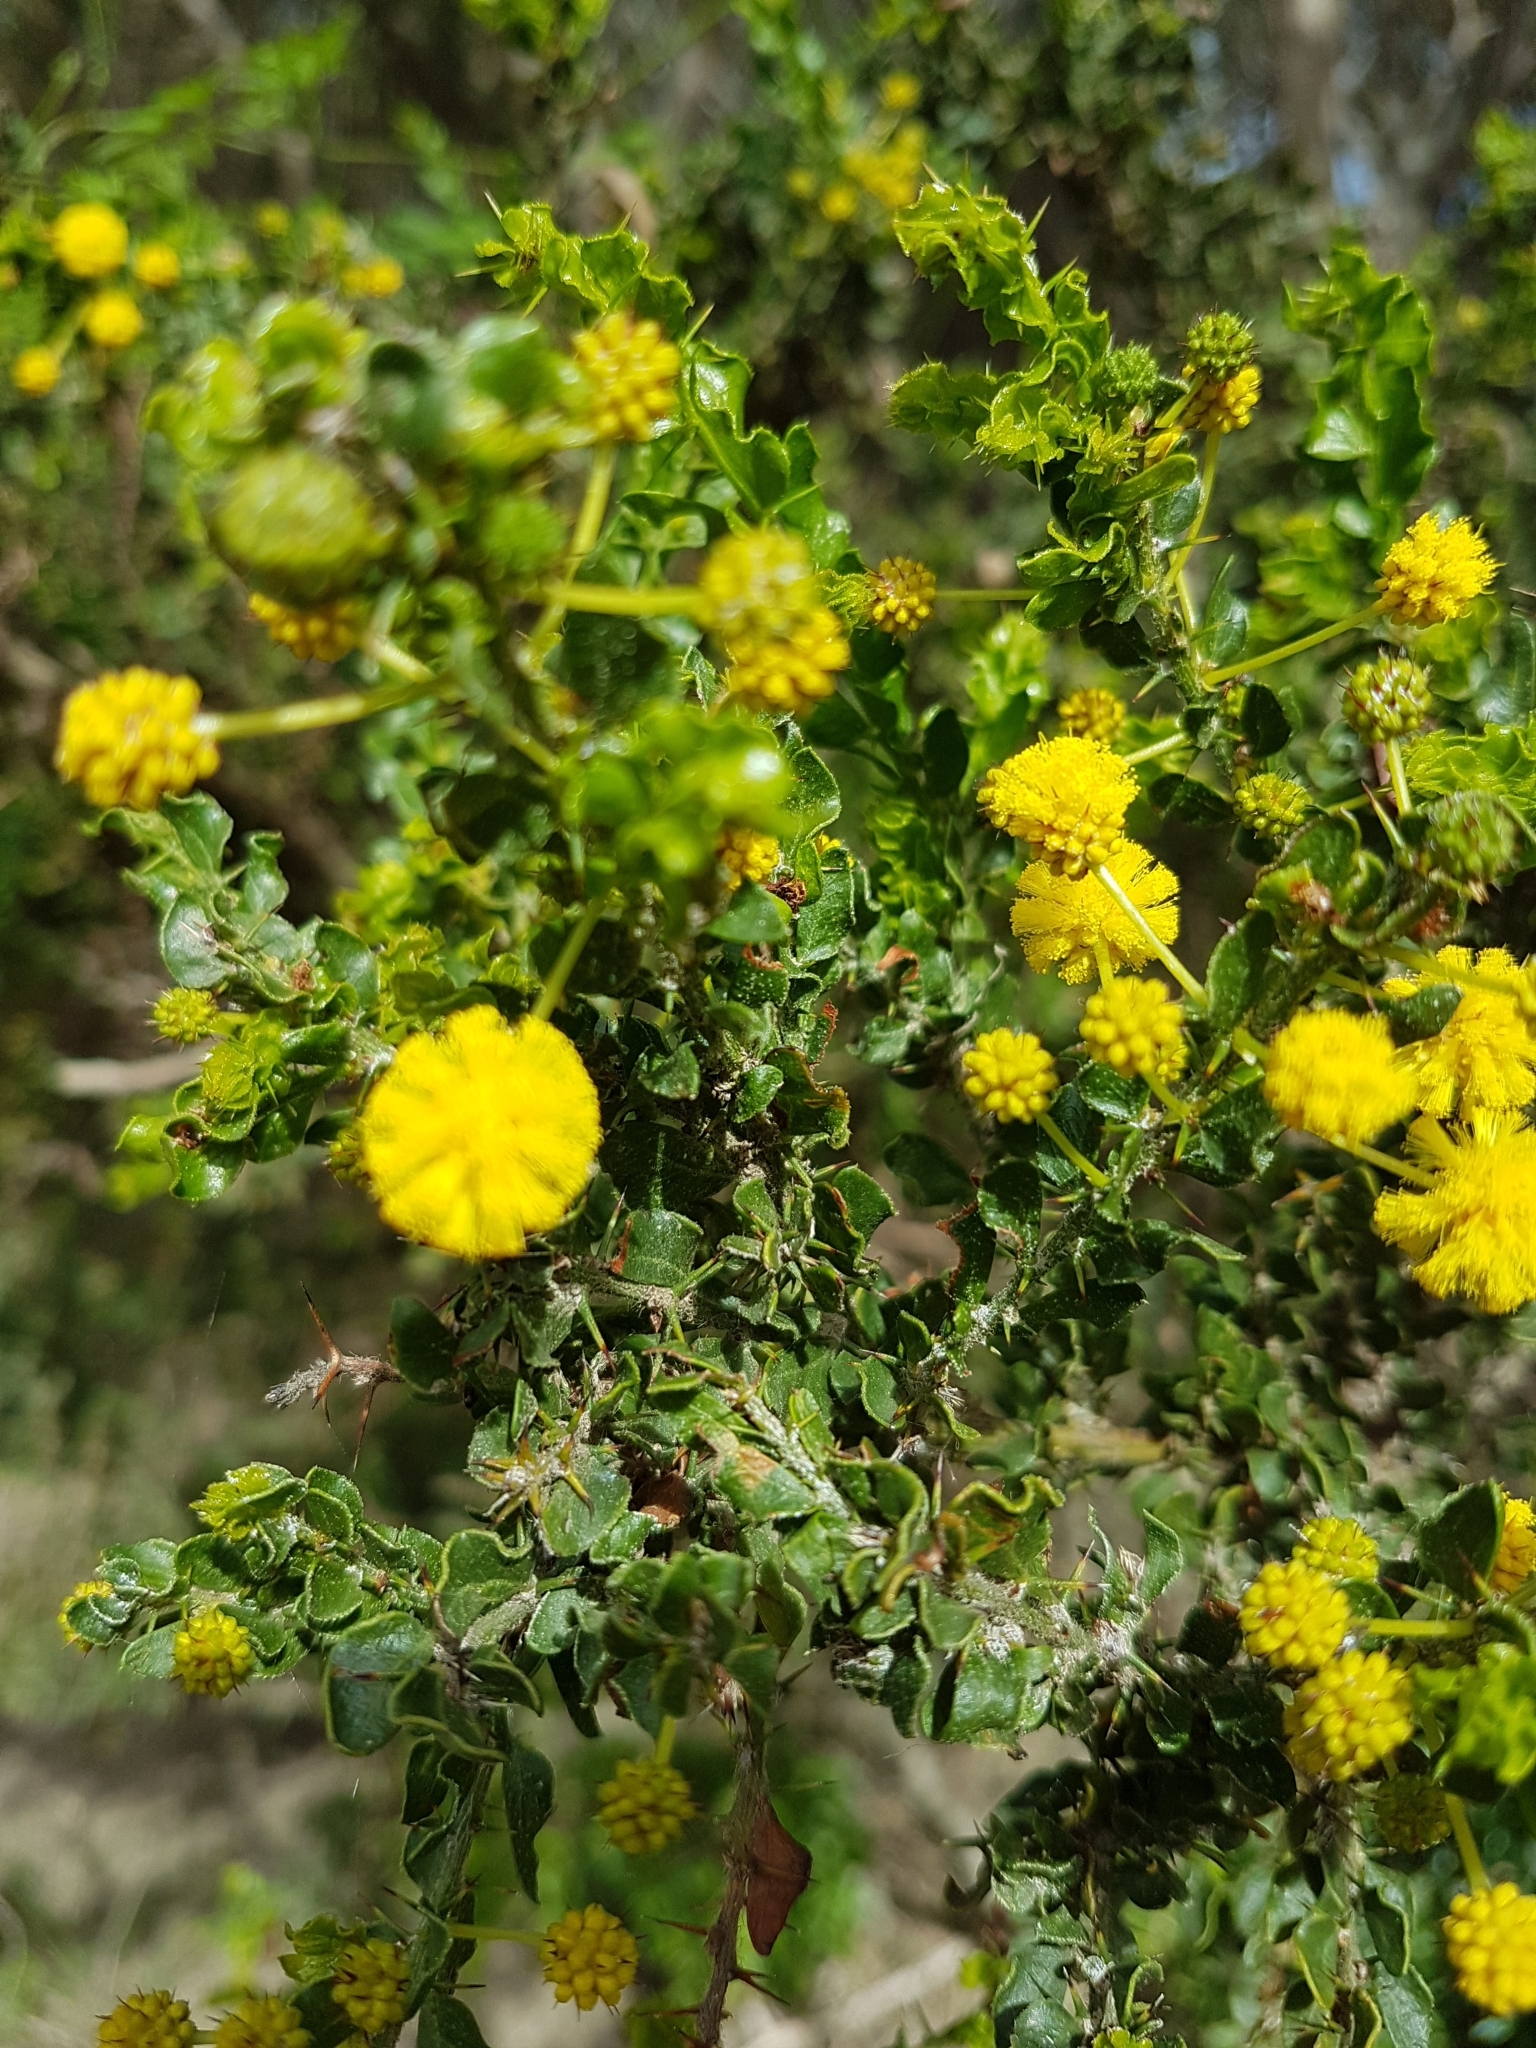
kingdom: Plantae
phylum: Tracheophyta
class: Magnoliopsida
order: Fabales
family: Fabaceae
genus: Acacia
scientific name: Acacia paradoxa
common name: Paradox acacia
